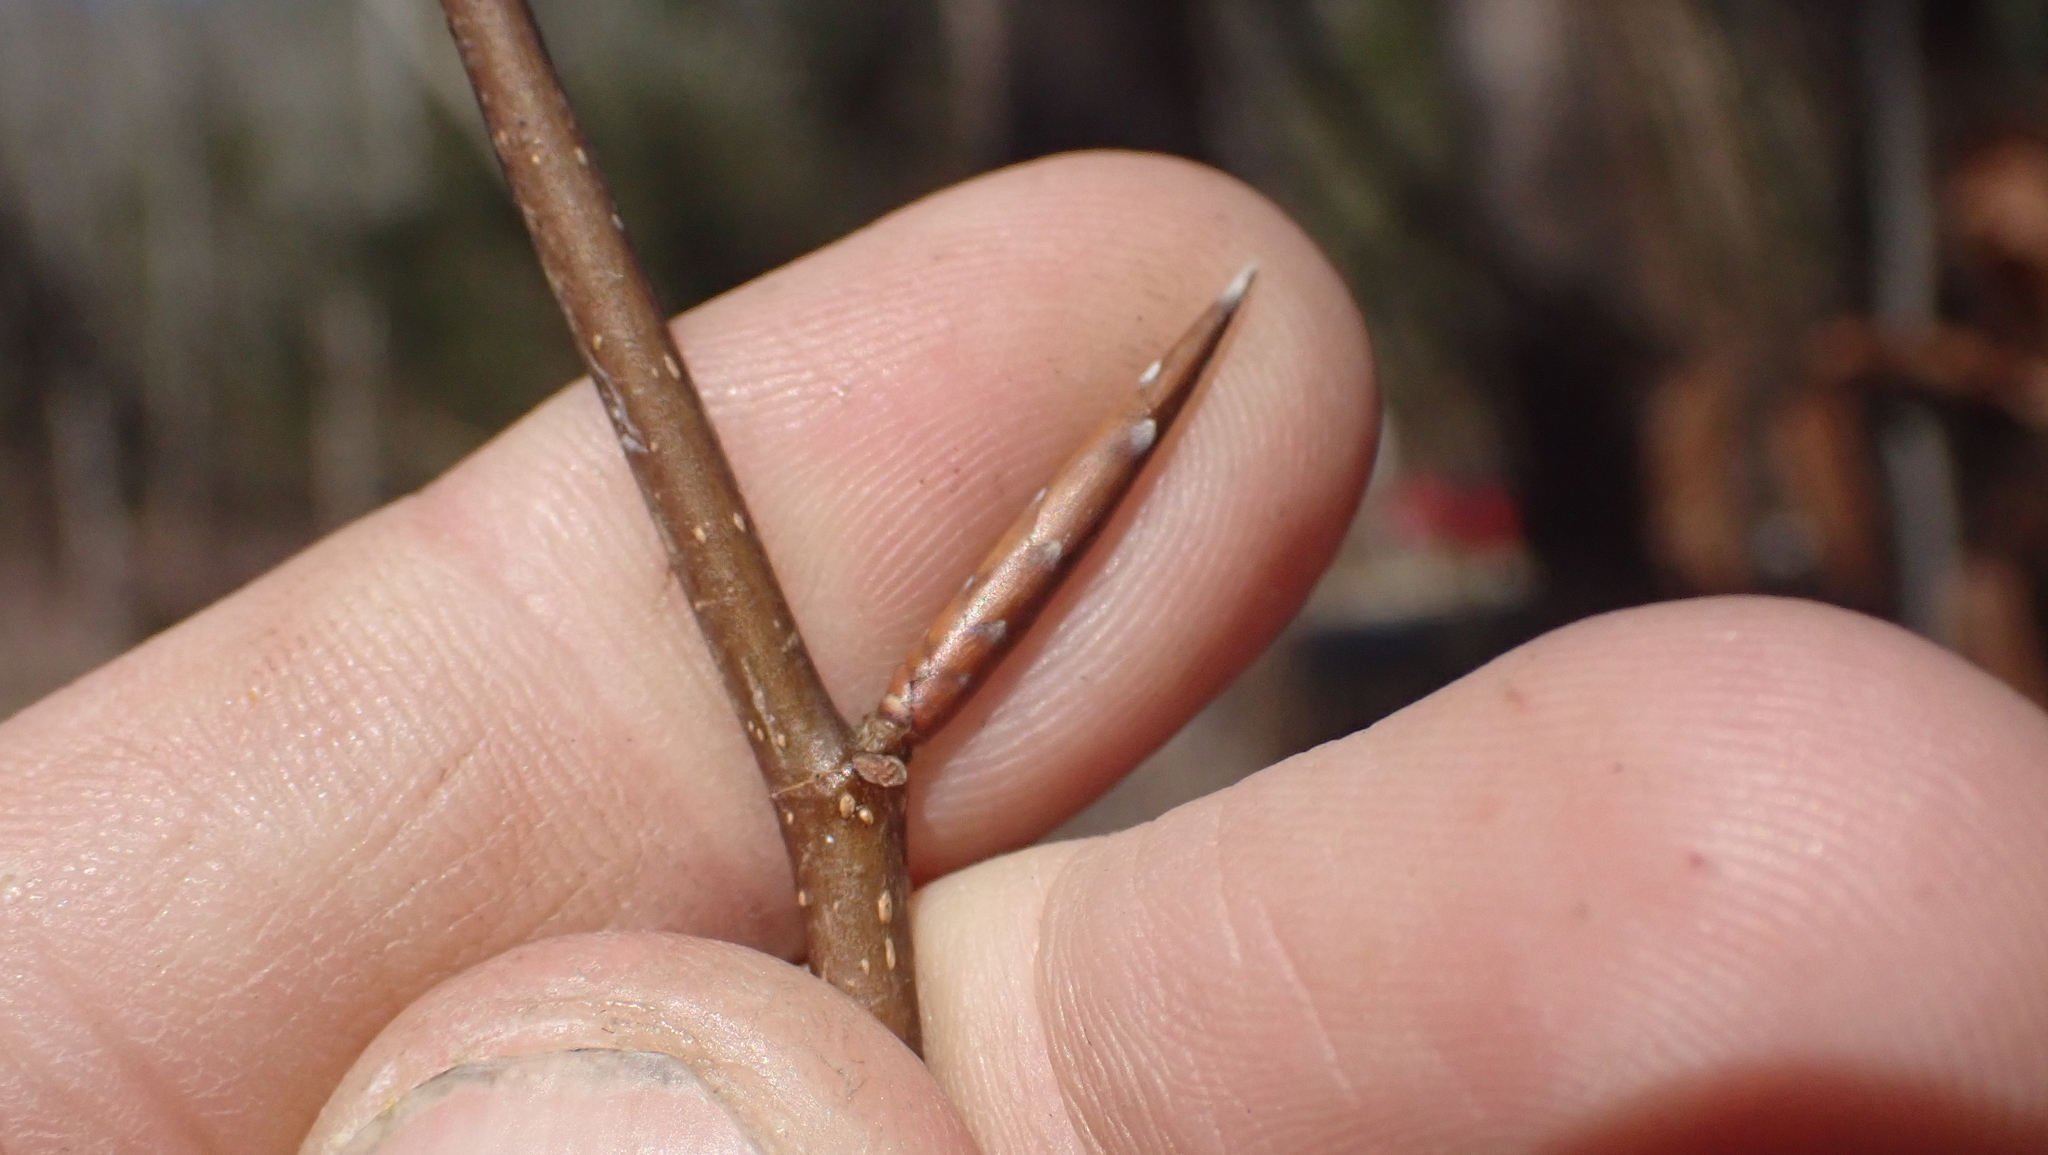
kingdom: Plantae
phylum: Tracheophyta
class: Magnoliopsida
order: Fagales
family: Fagaceae
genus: Fagus
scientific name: Fagus grandifolia
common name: American beech
